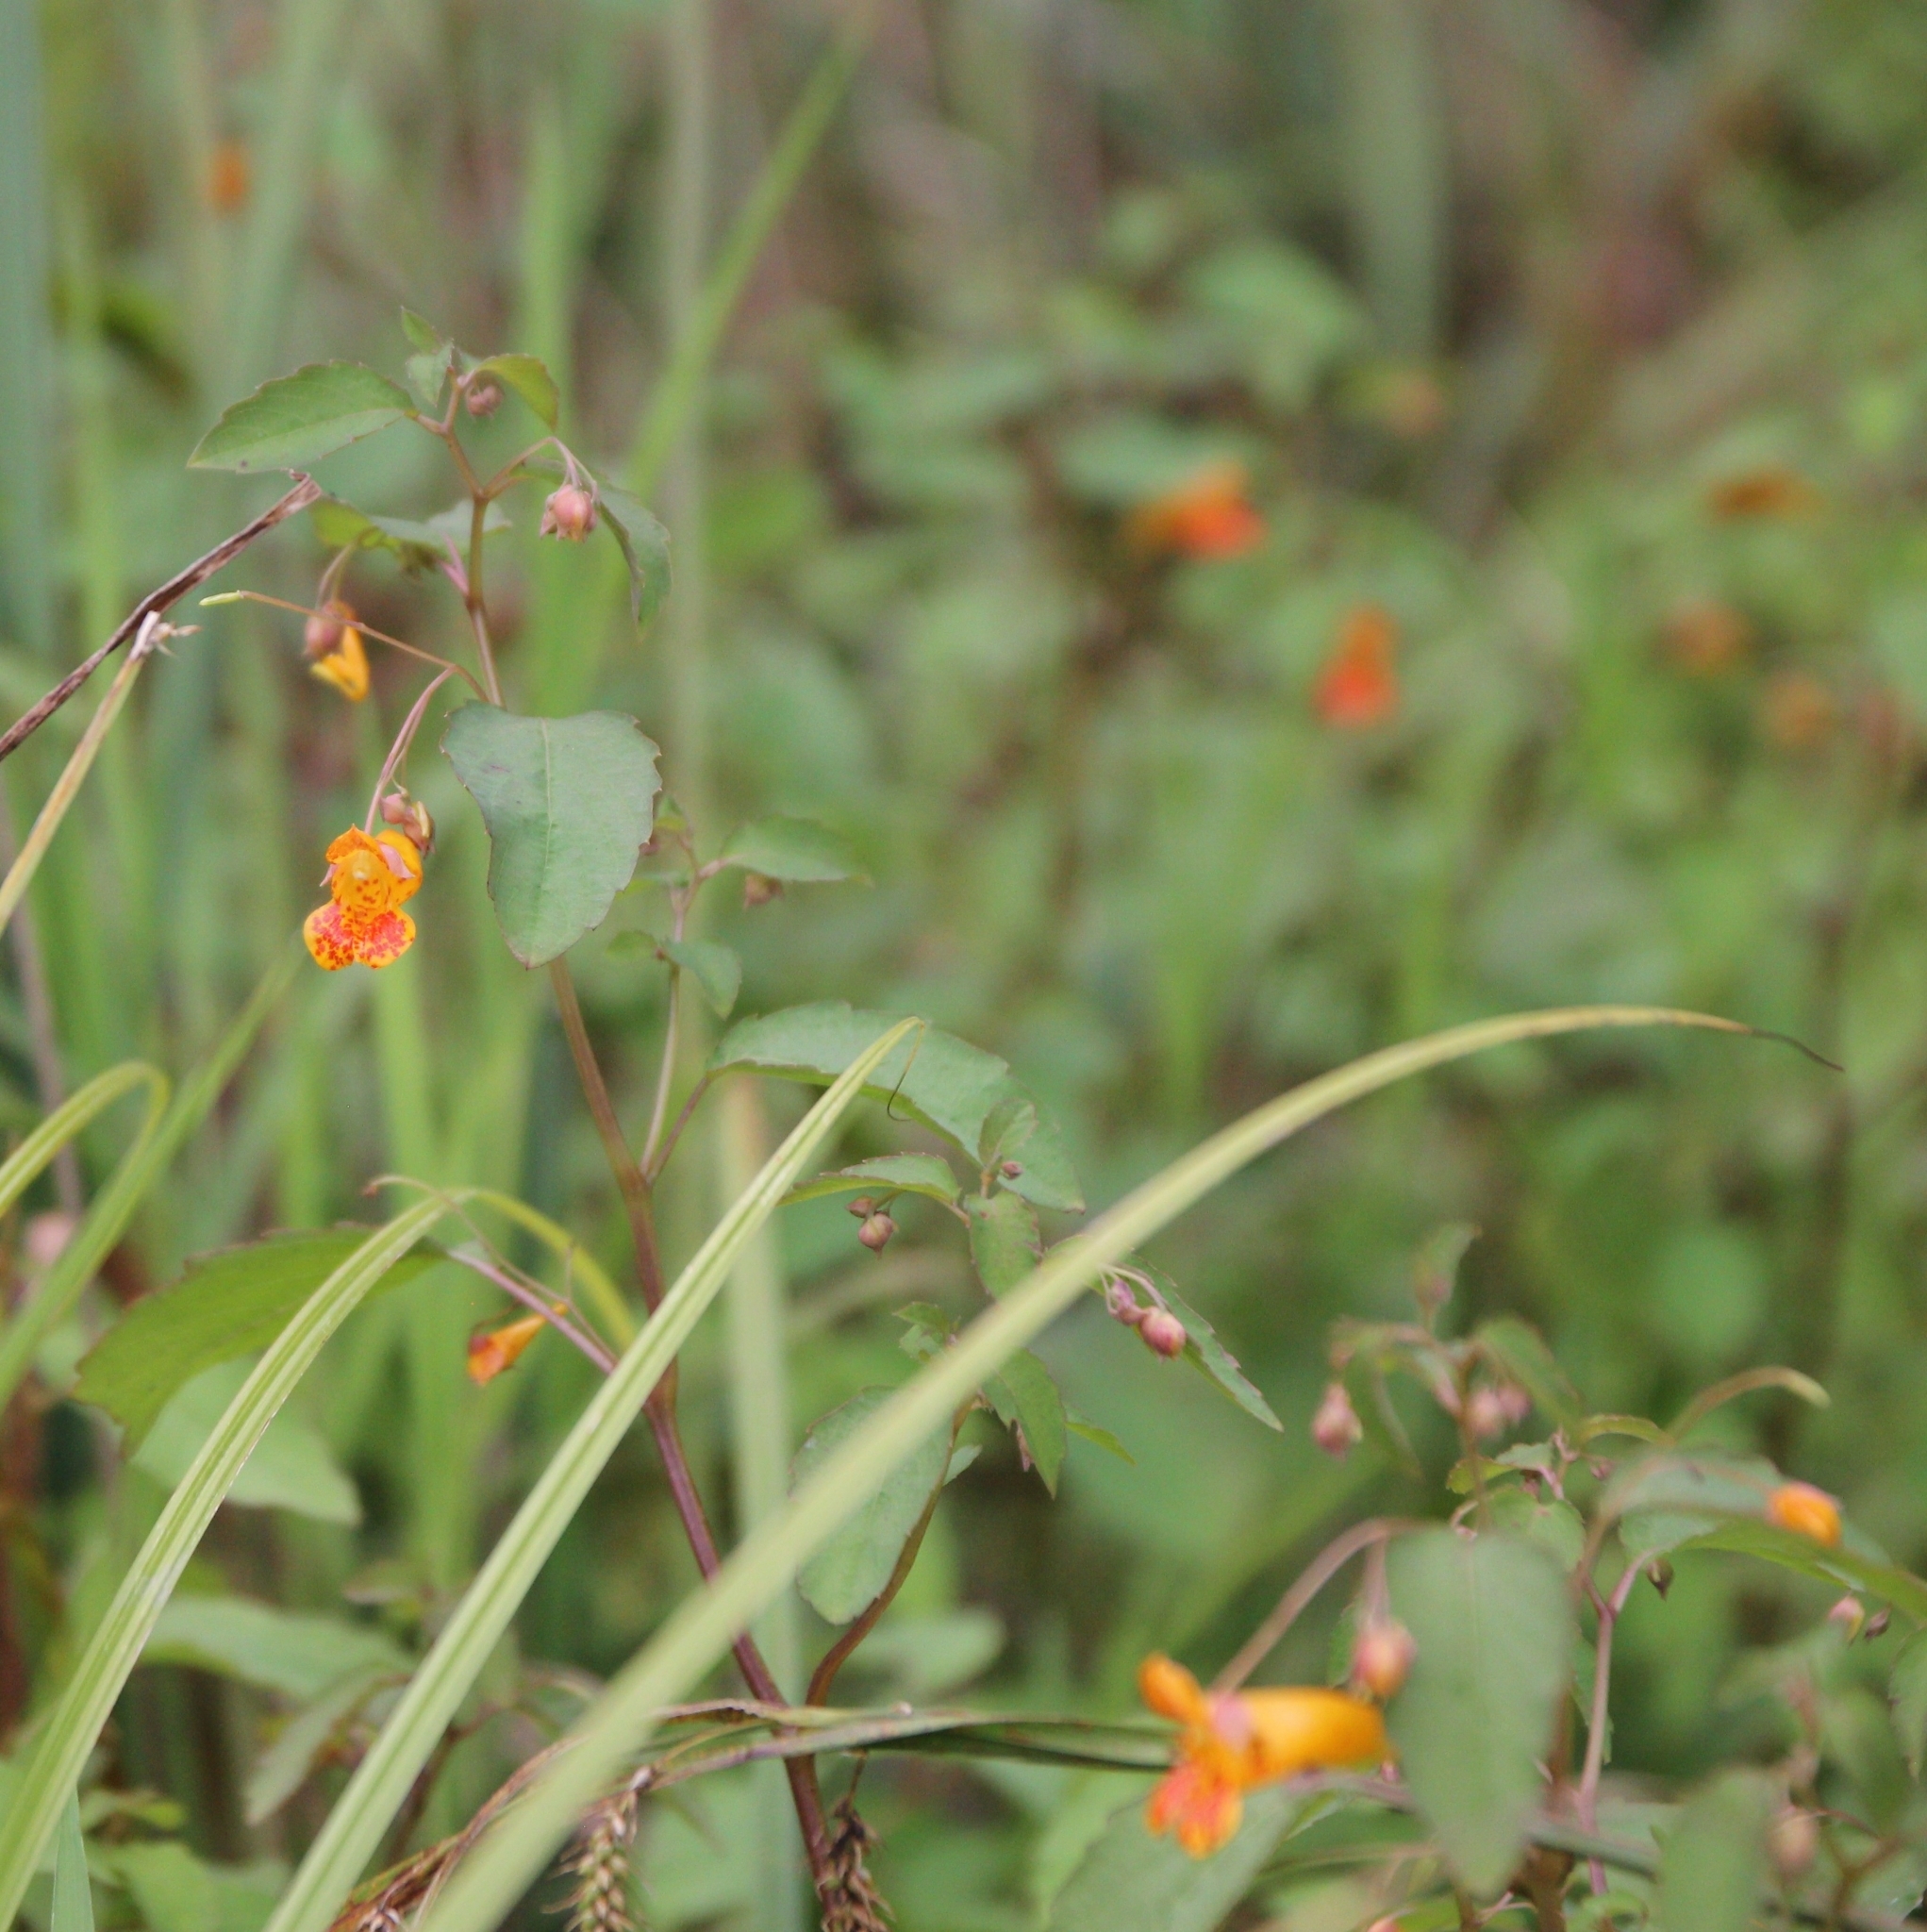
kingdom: Plantae
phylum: Tracheophyta
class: Magnoliopsida
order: Ericales
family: Balsaminaceae
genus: Impatiens
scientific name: Impatiens capensis
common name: Orange balsam
